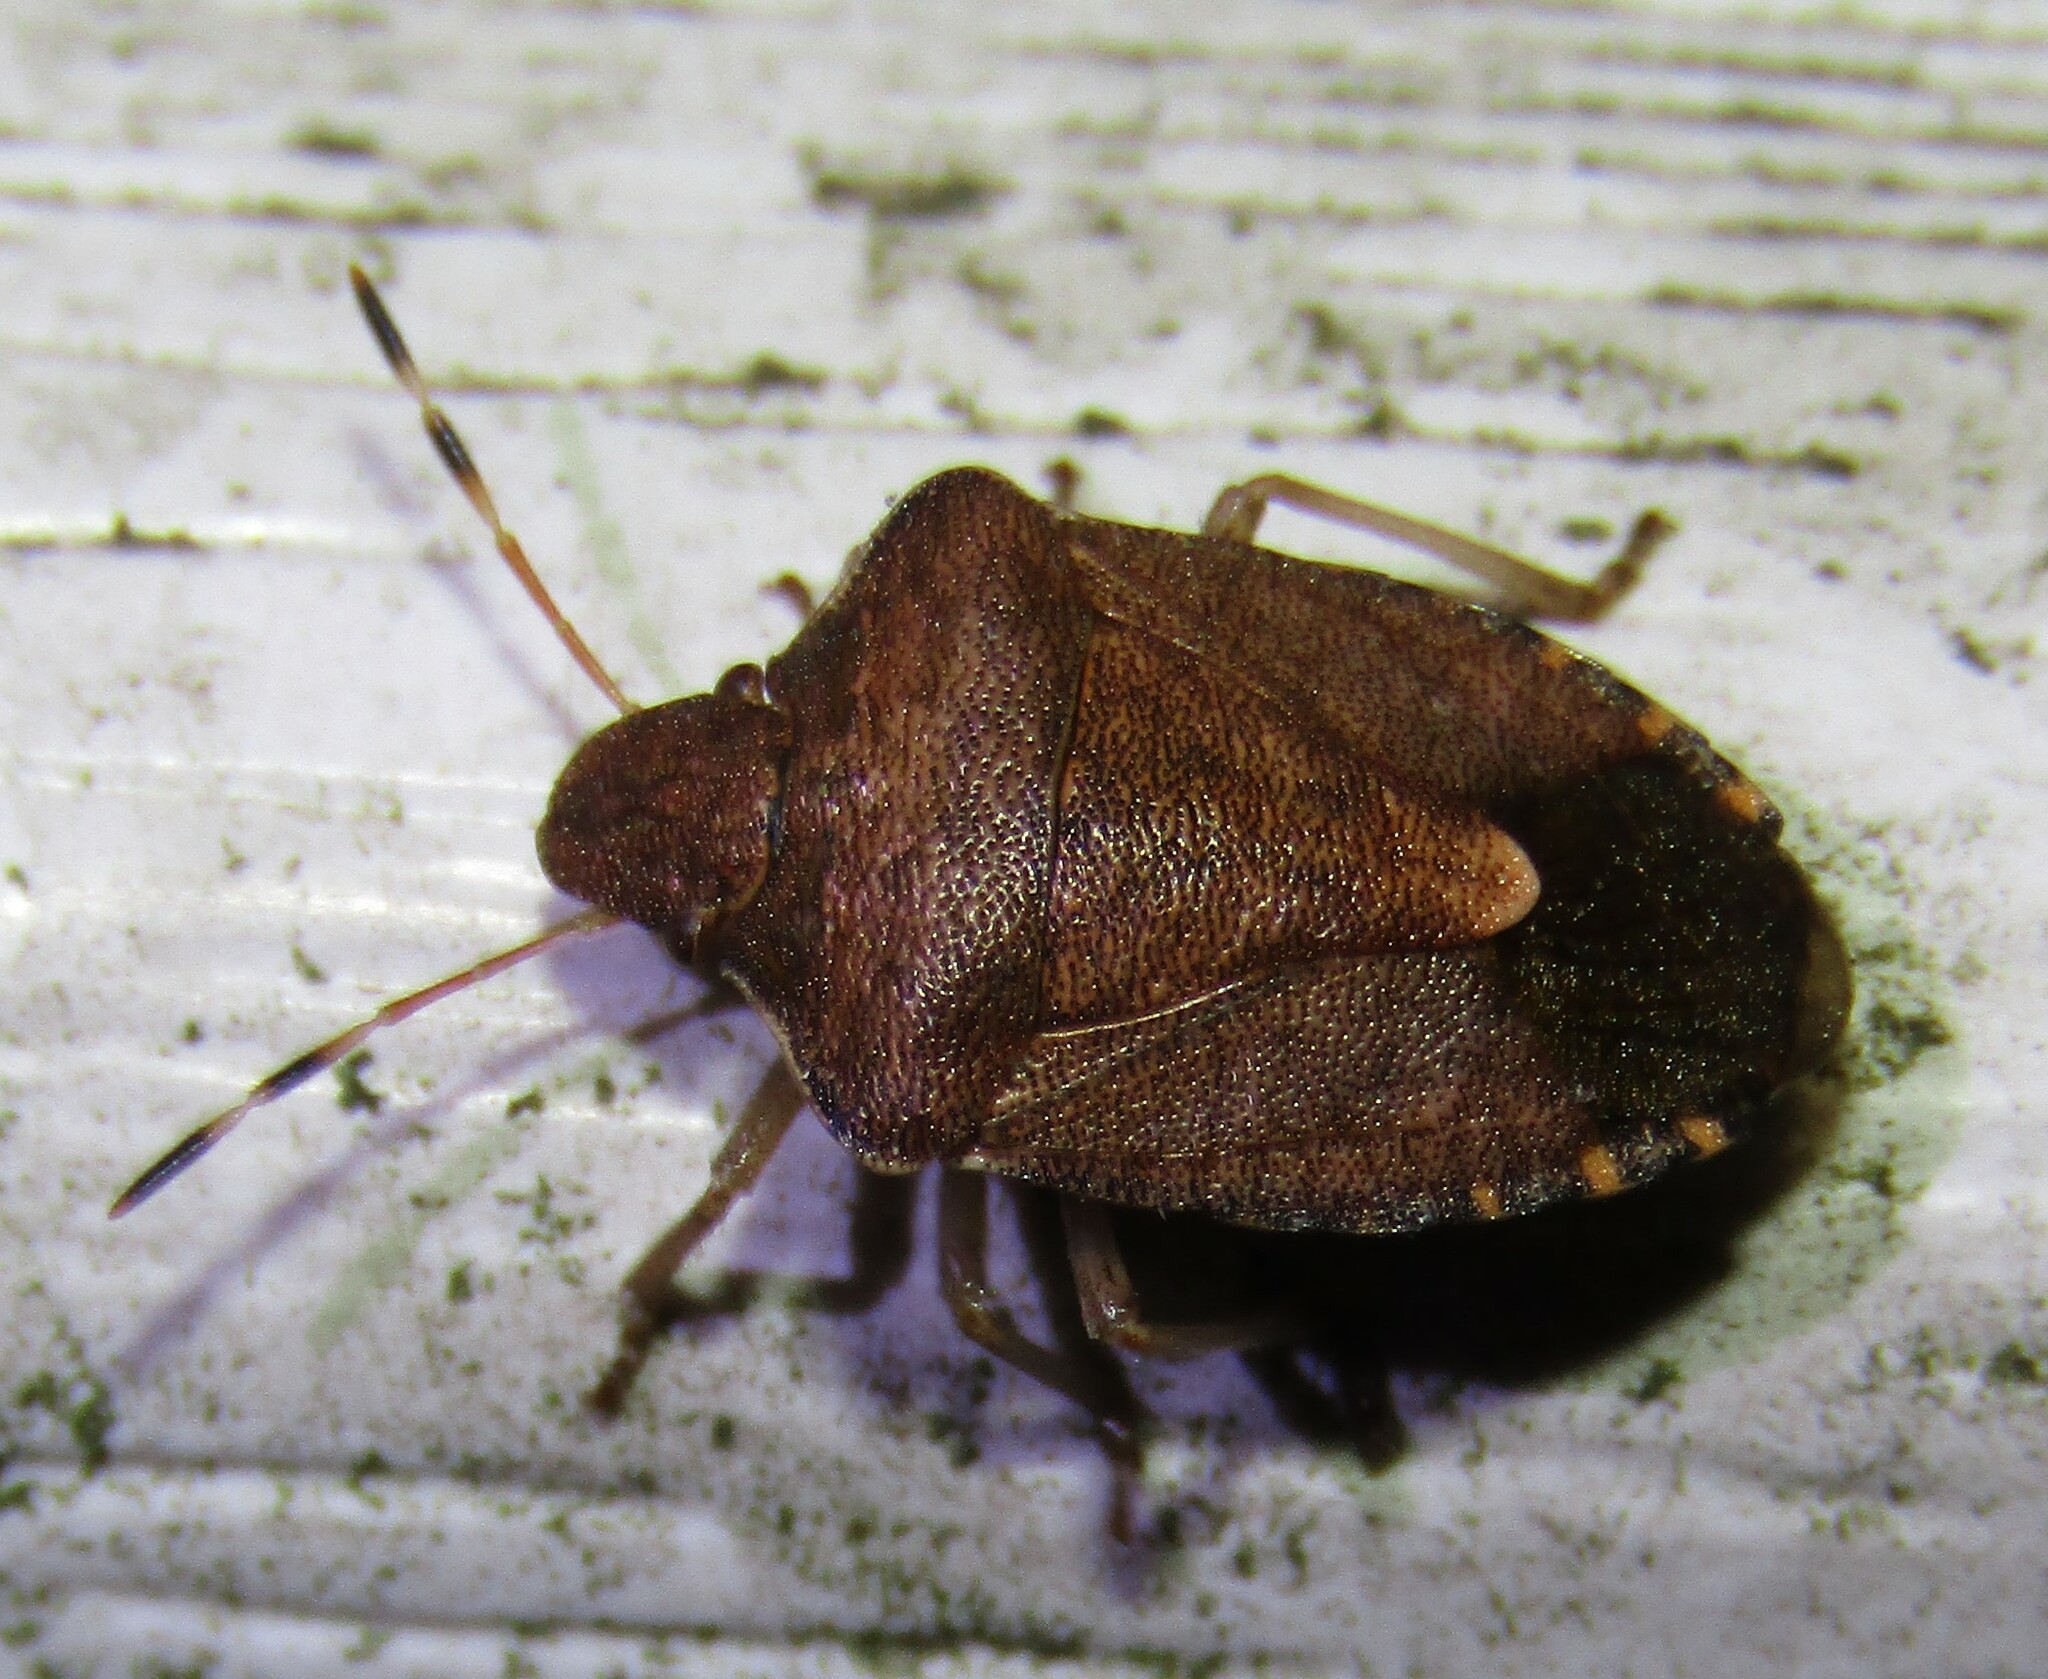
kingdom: Animalia
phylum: Arthropoda
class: Insecta
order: Hemiptera
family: Pentatomidae
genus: Holcostethus
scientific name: Holcostethus strictus
